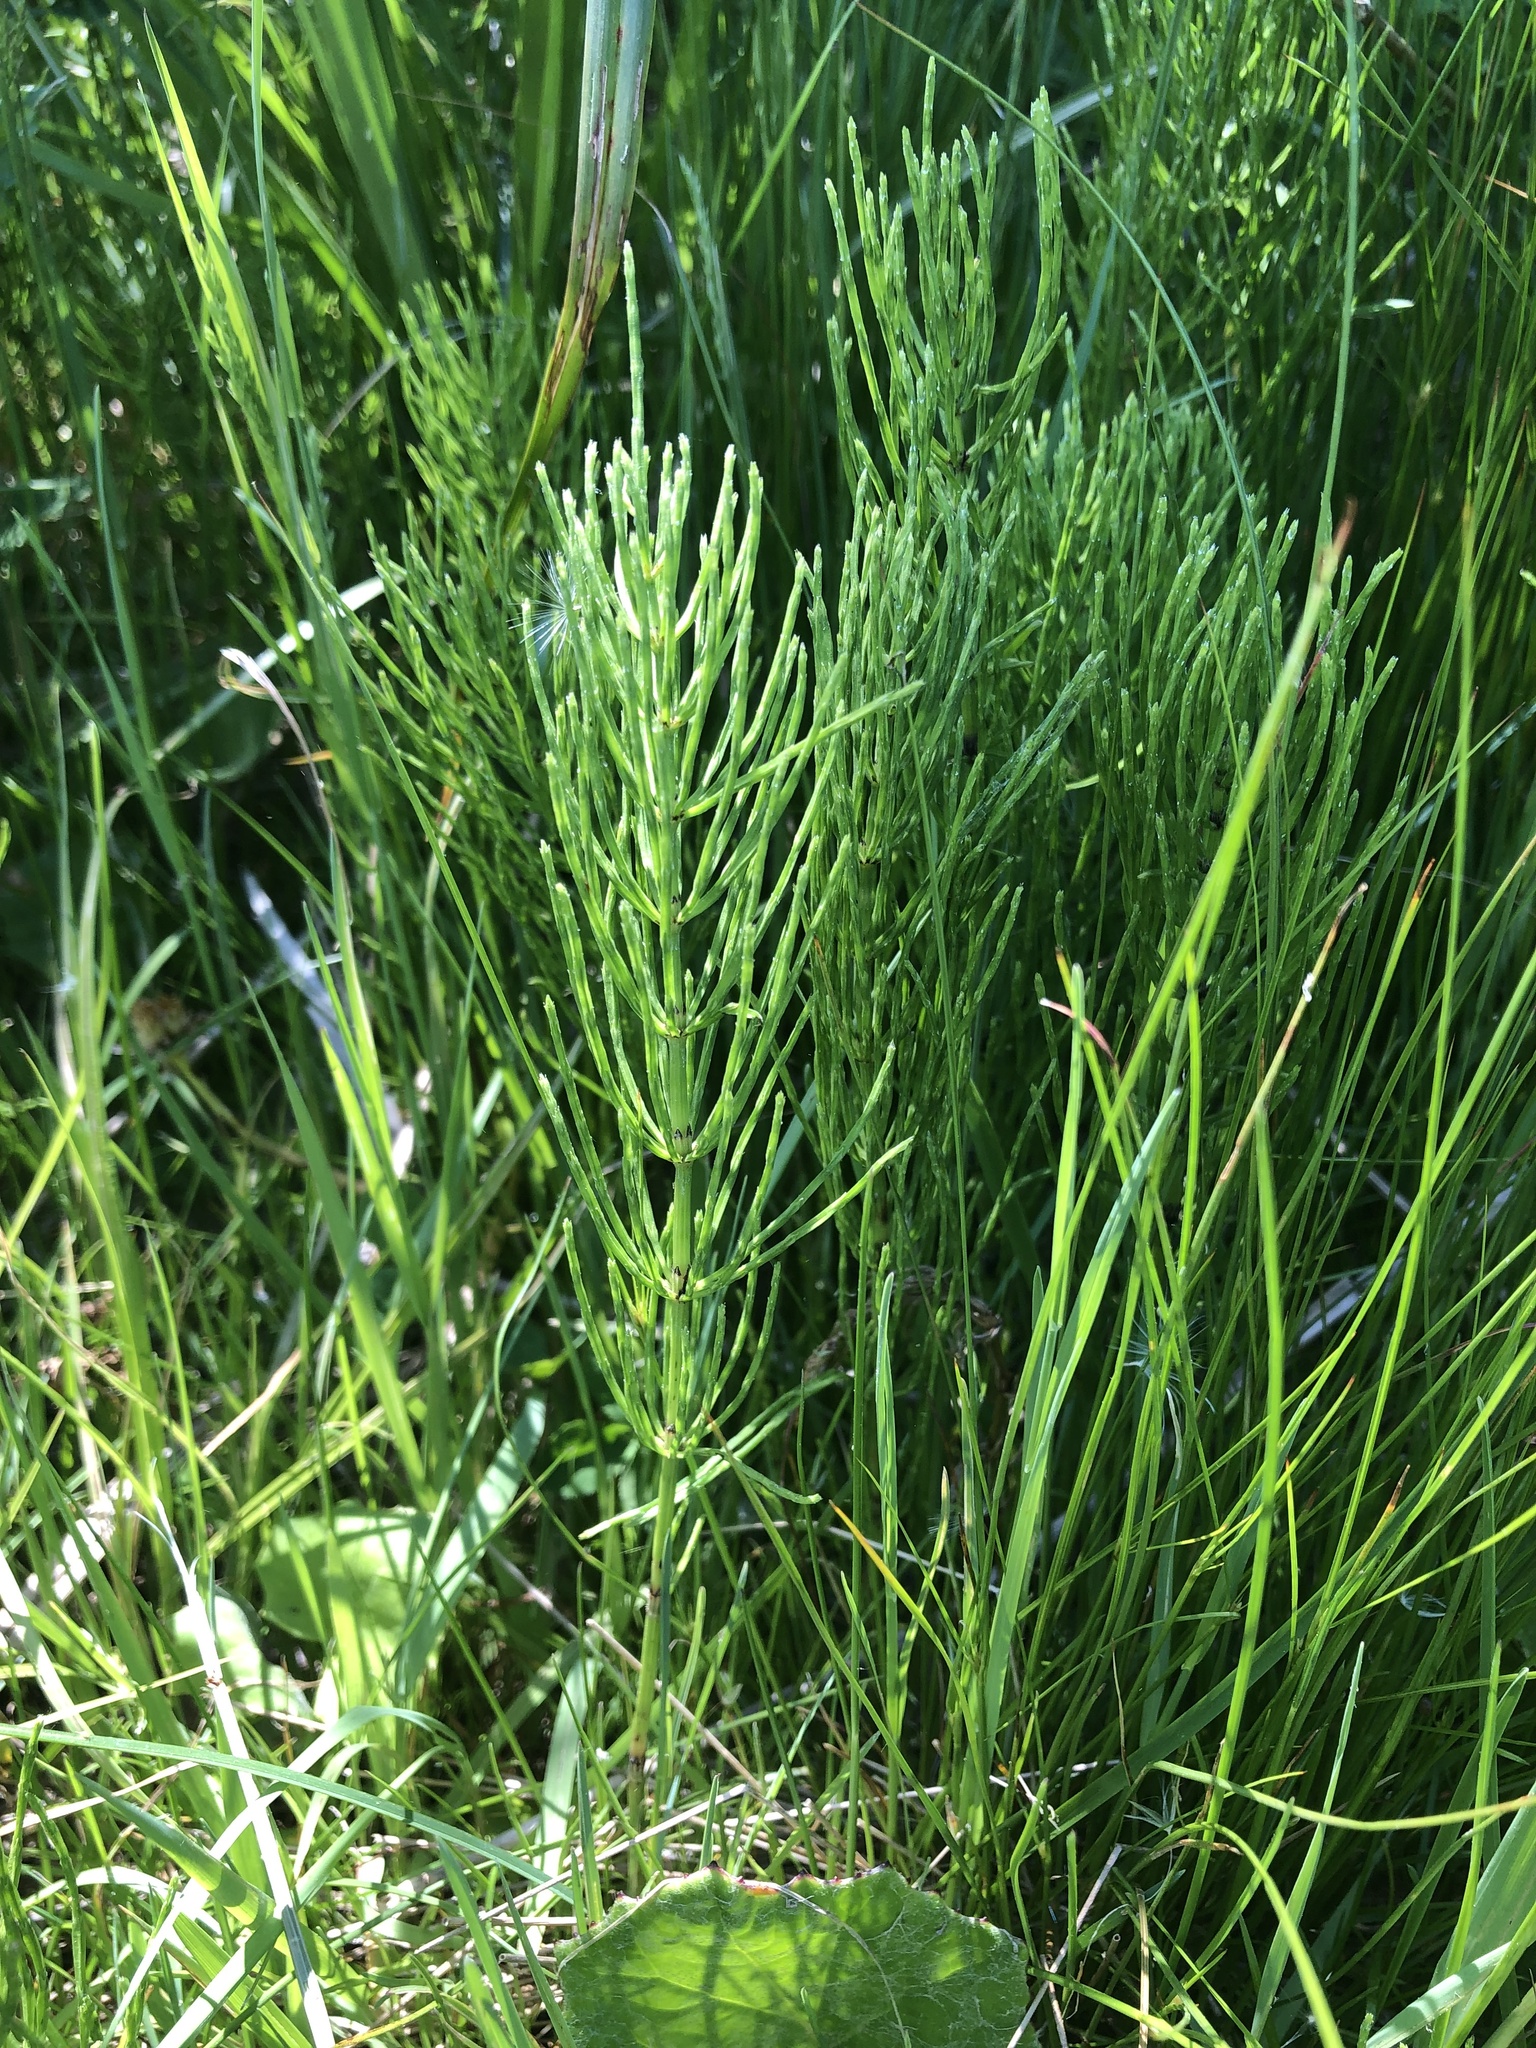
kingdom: Plantae
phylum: Tracheophyta
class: Polypodiopsida
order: Equisetales
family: Equisetaceae
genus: Equisetum
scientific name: Equisetum arvense
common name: Field horsetail
